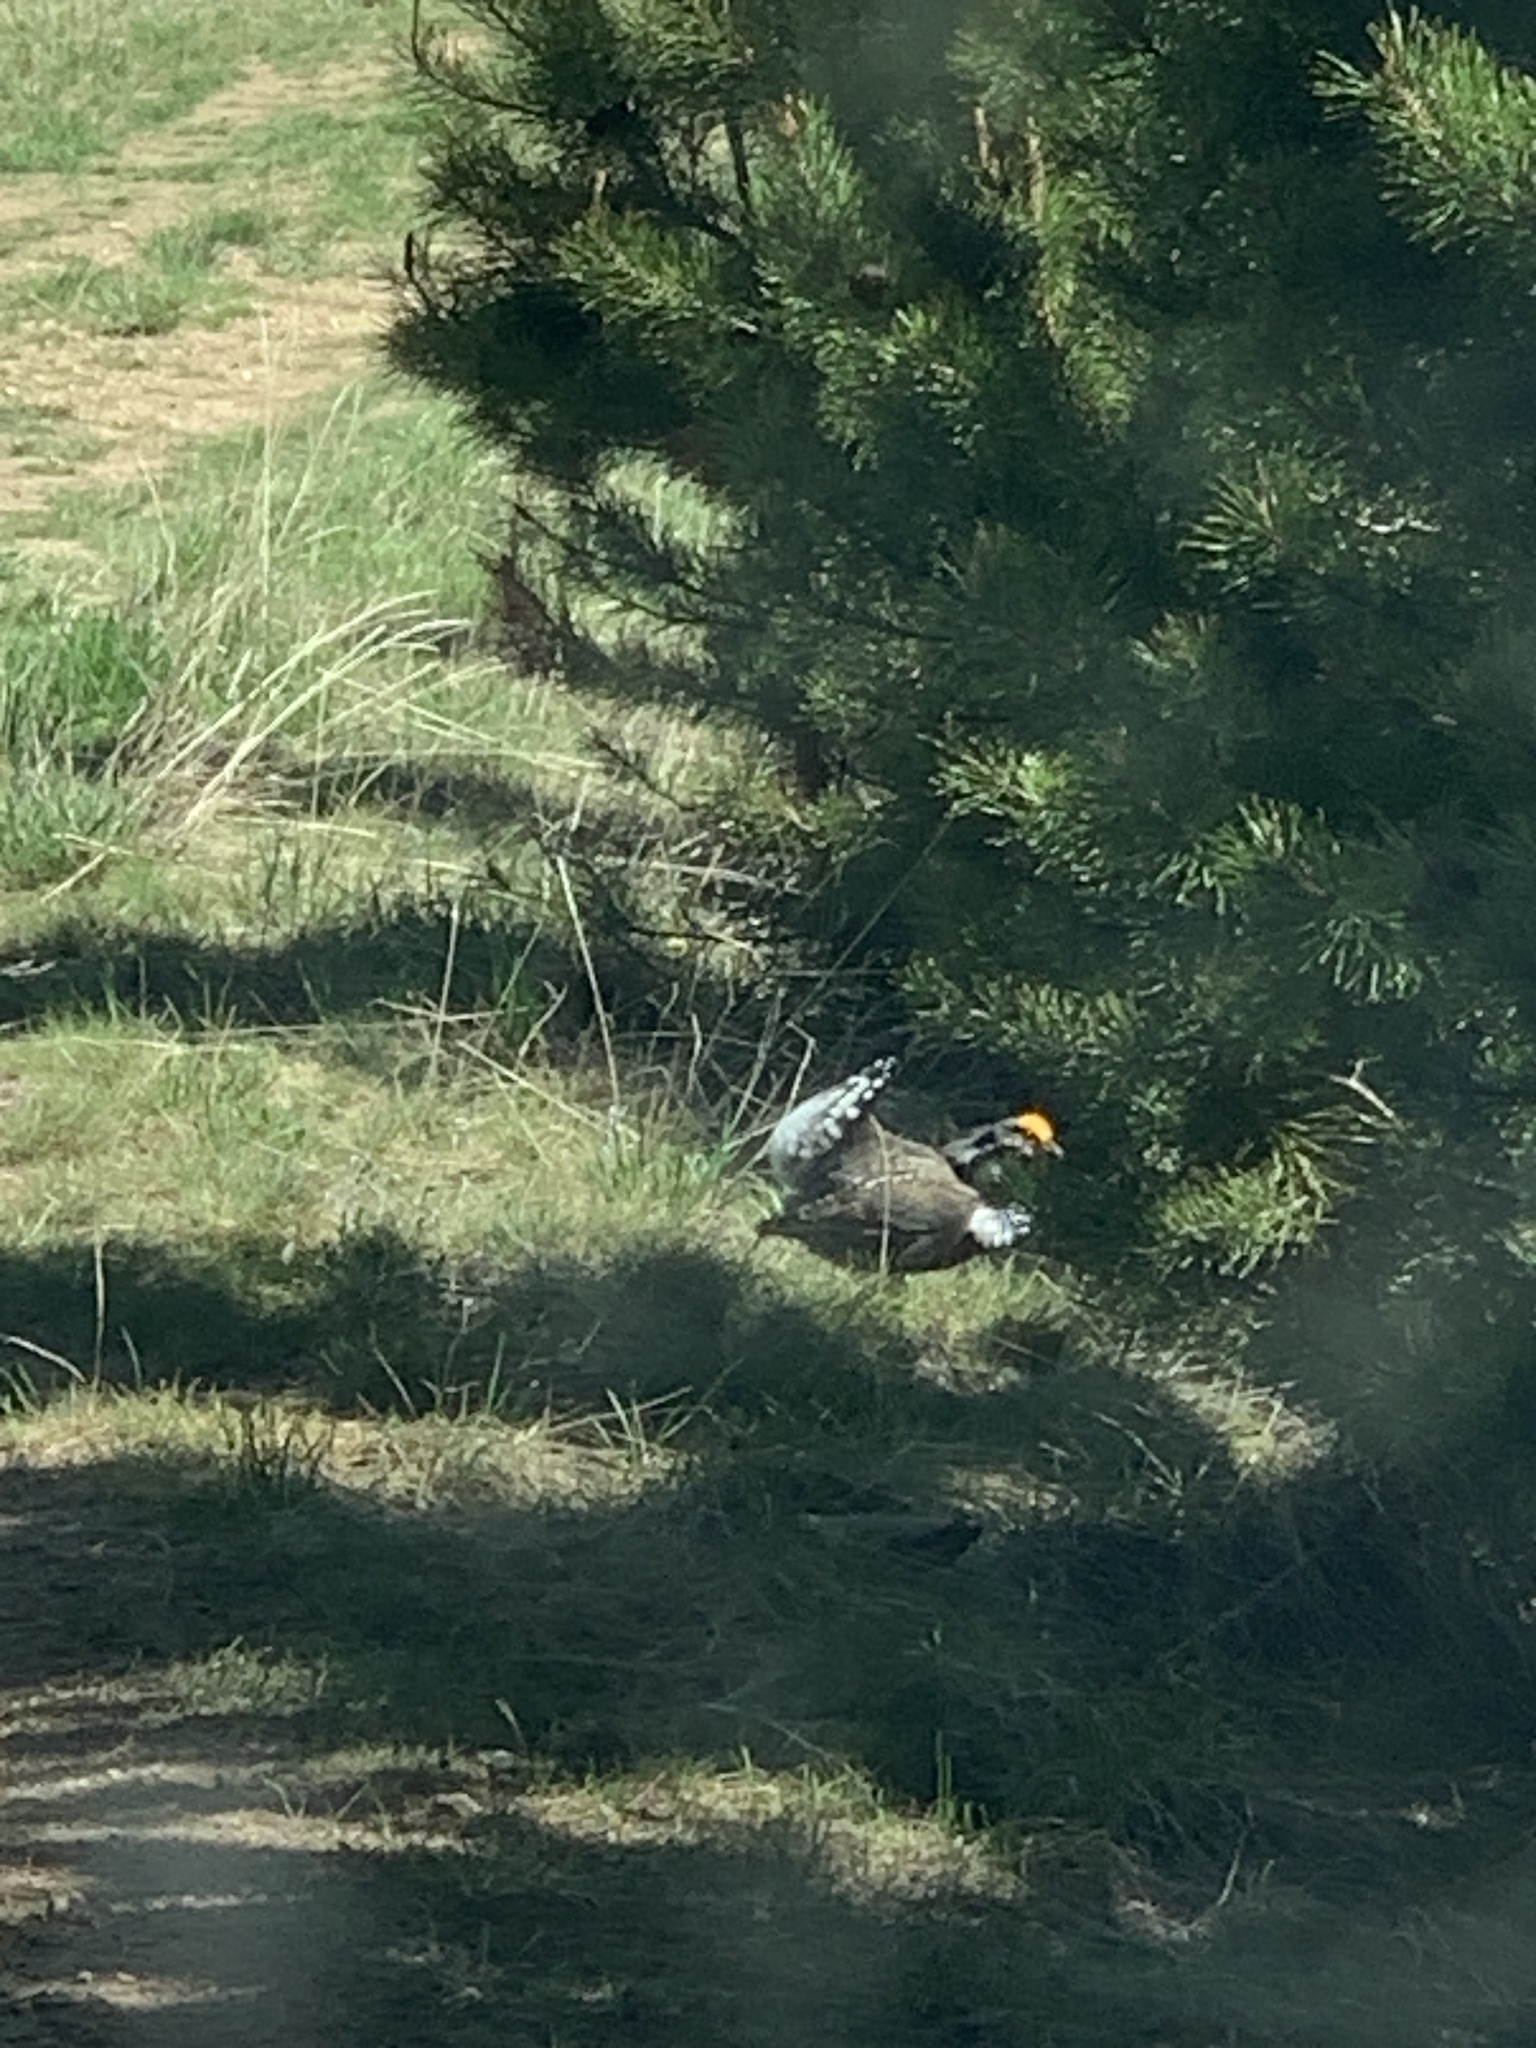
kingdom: Animalia
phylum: Chordata
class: Aves
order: Galliformes
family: Phasianidae
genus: Dendragapus
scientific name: Dendragapus obscurus
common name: Dusky grouse
